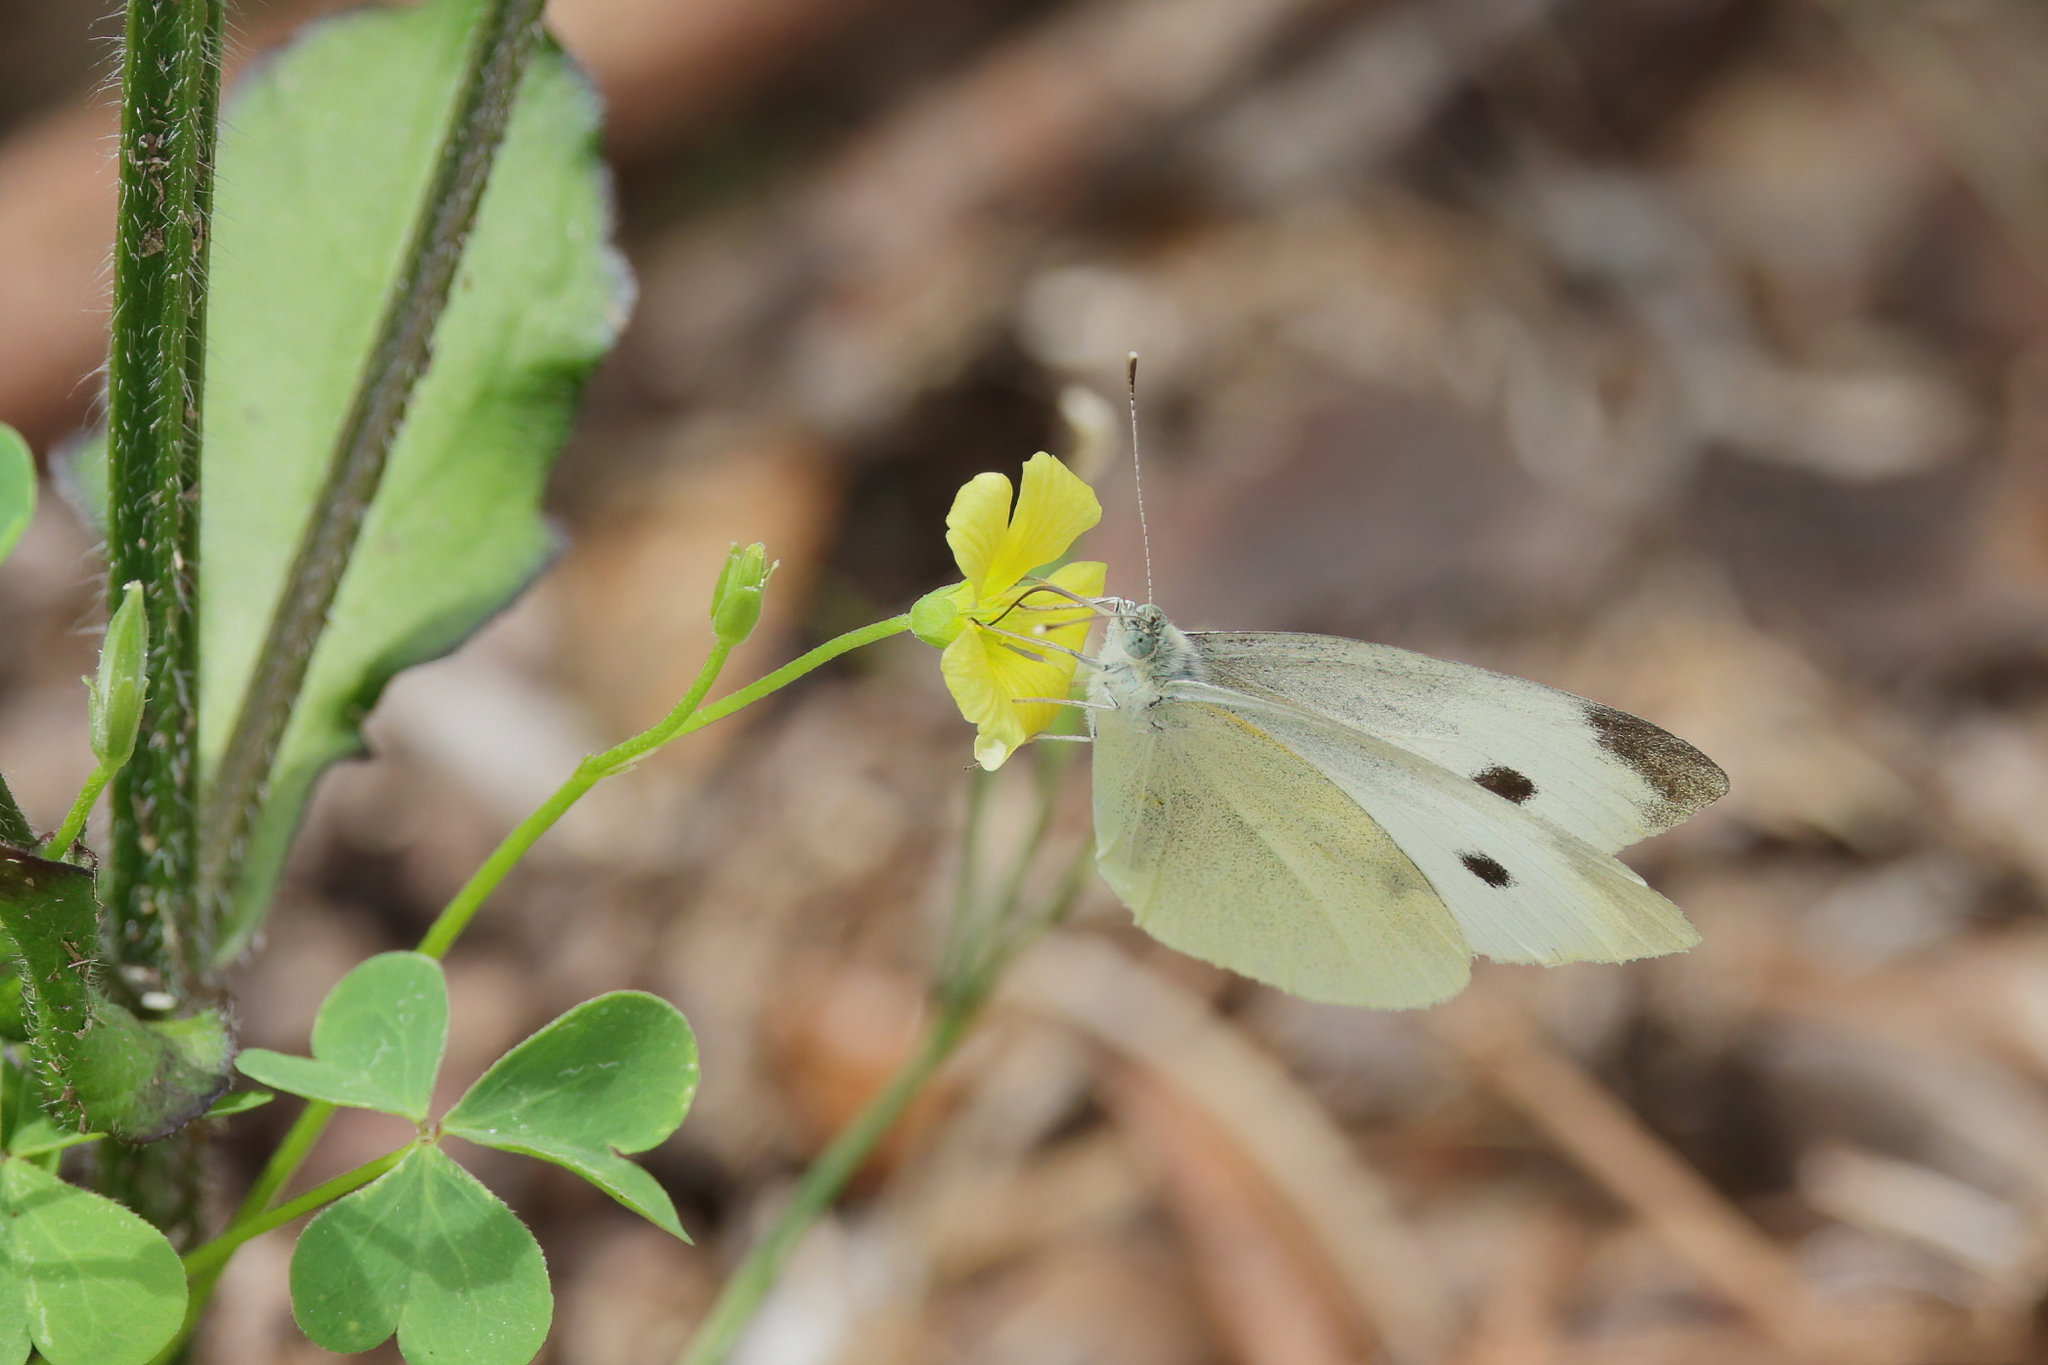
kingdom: Animalia
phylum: Arthropoda
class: Insecta
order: Lepidoptera
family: Pieridae
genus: Pieris
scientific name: Pieris rapae
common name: Small white
